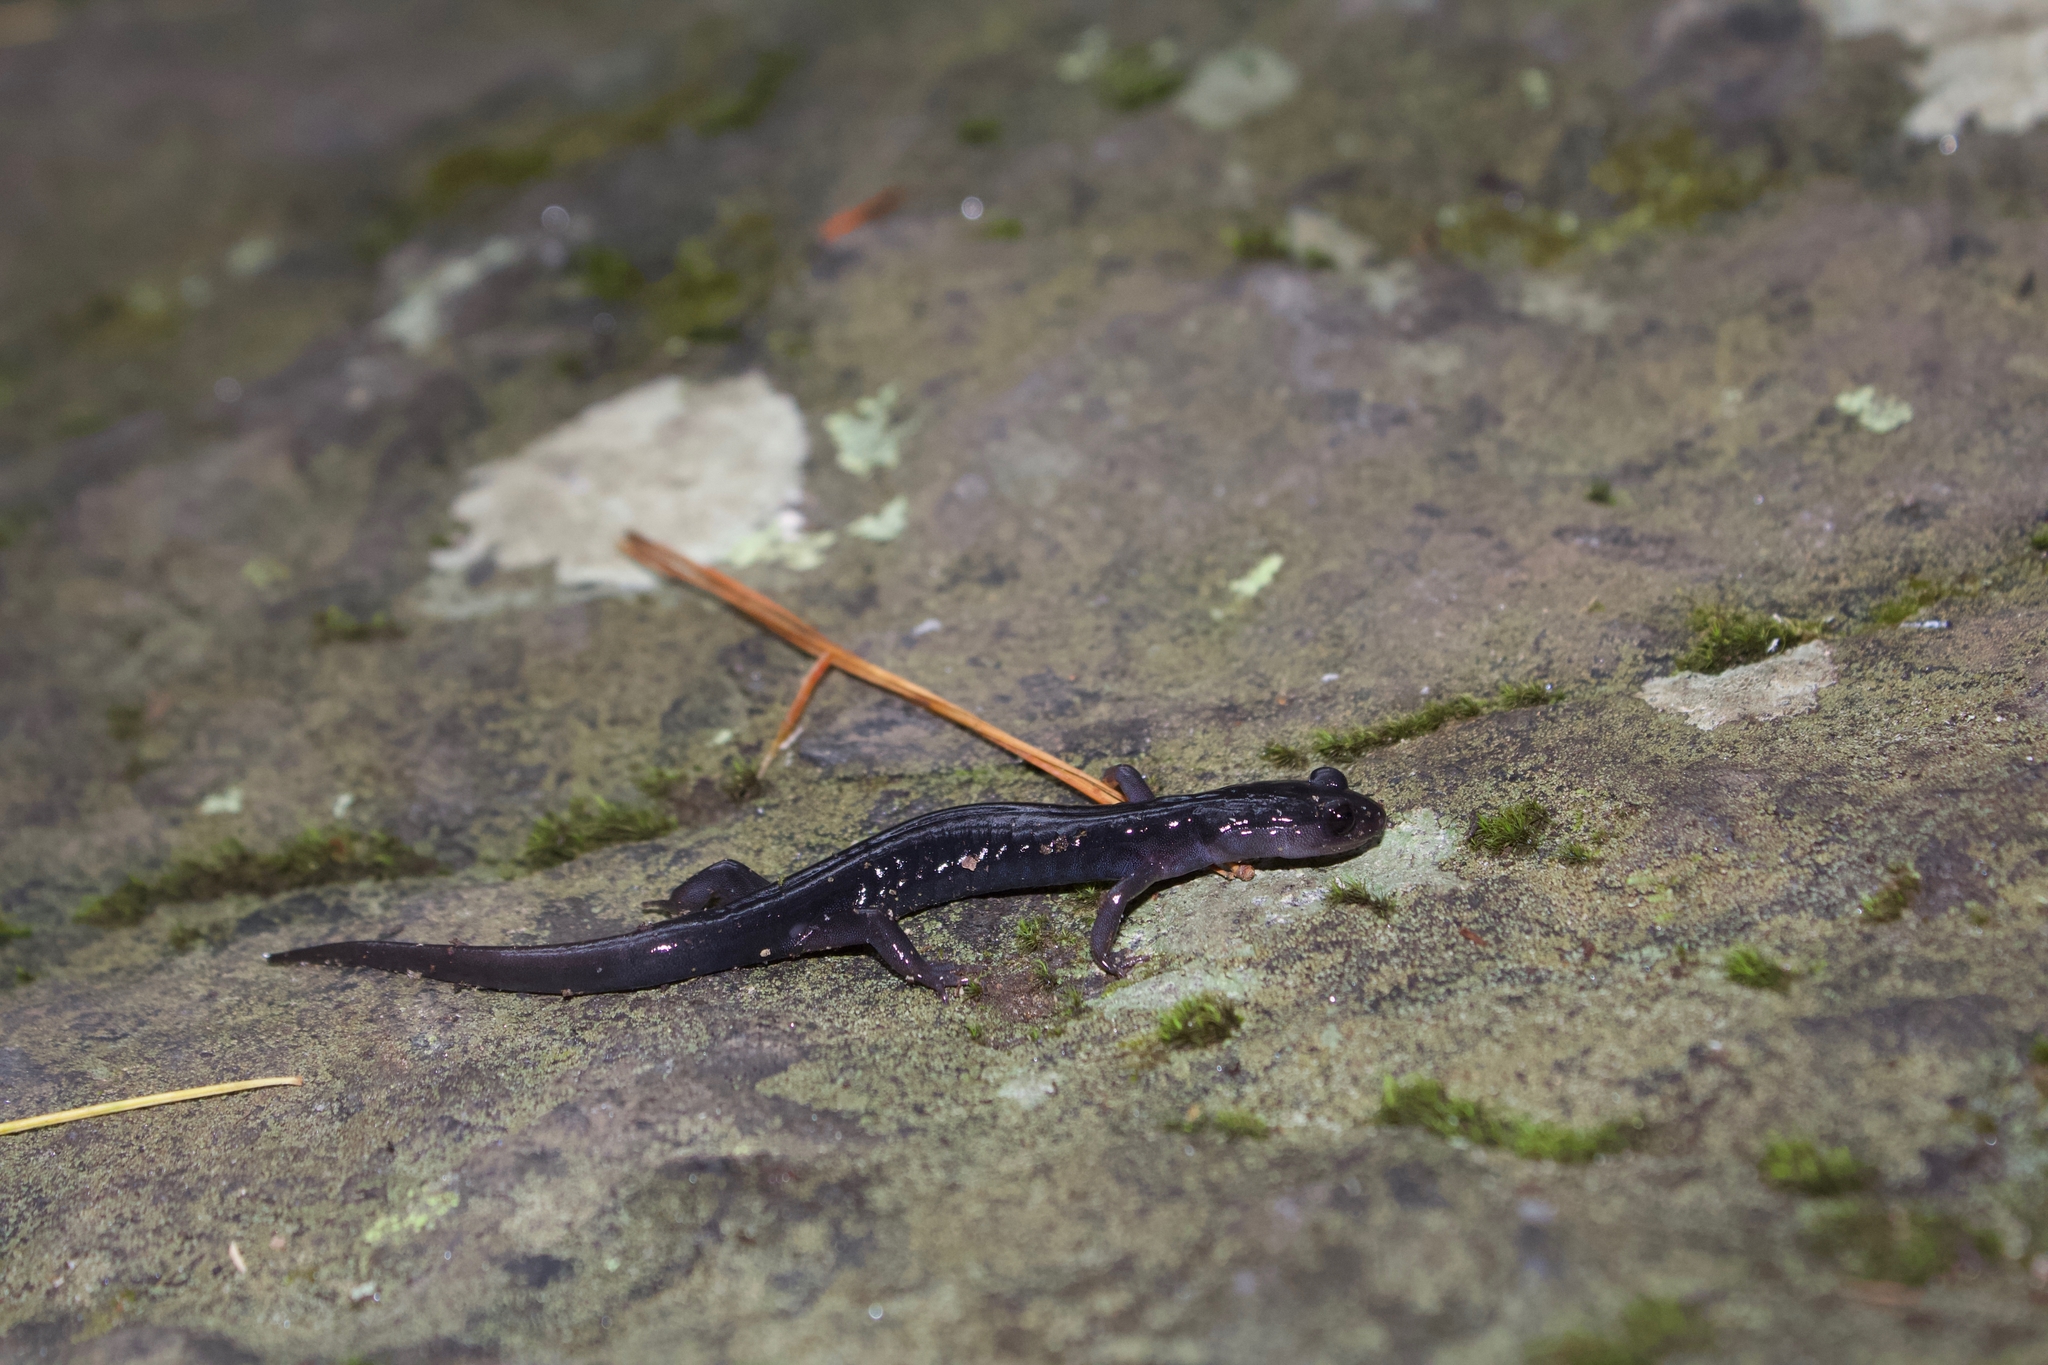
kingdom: Animalia
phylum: Chordata
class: Amphibia
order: Caudata
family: Plethodontidae
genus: Plethodon
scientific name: Plethodon metcalfi
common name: Southern gray-cheeked salamander
